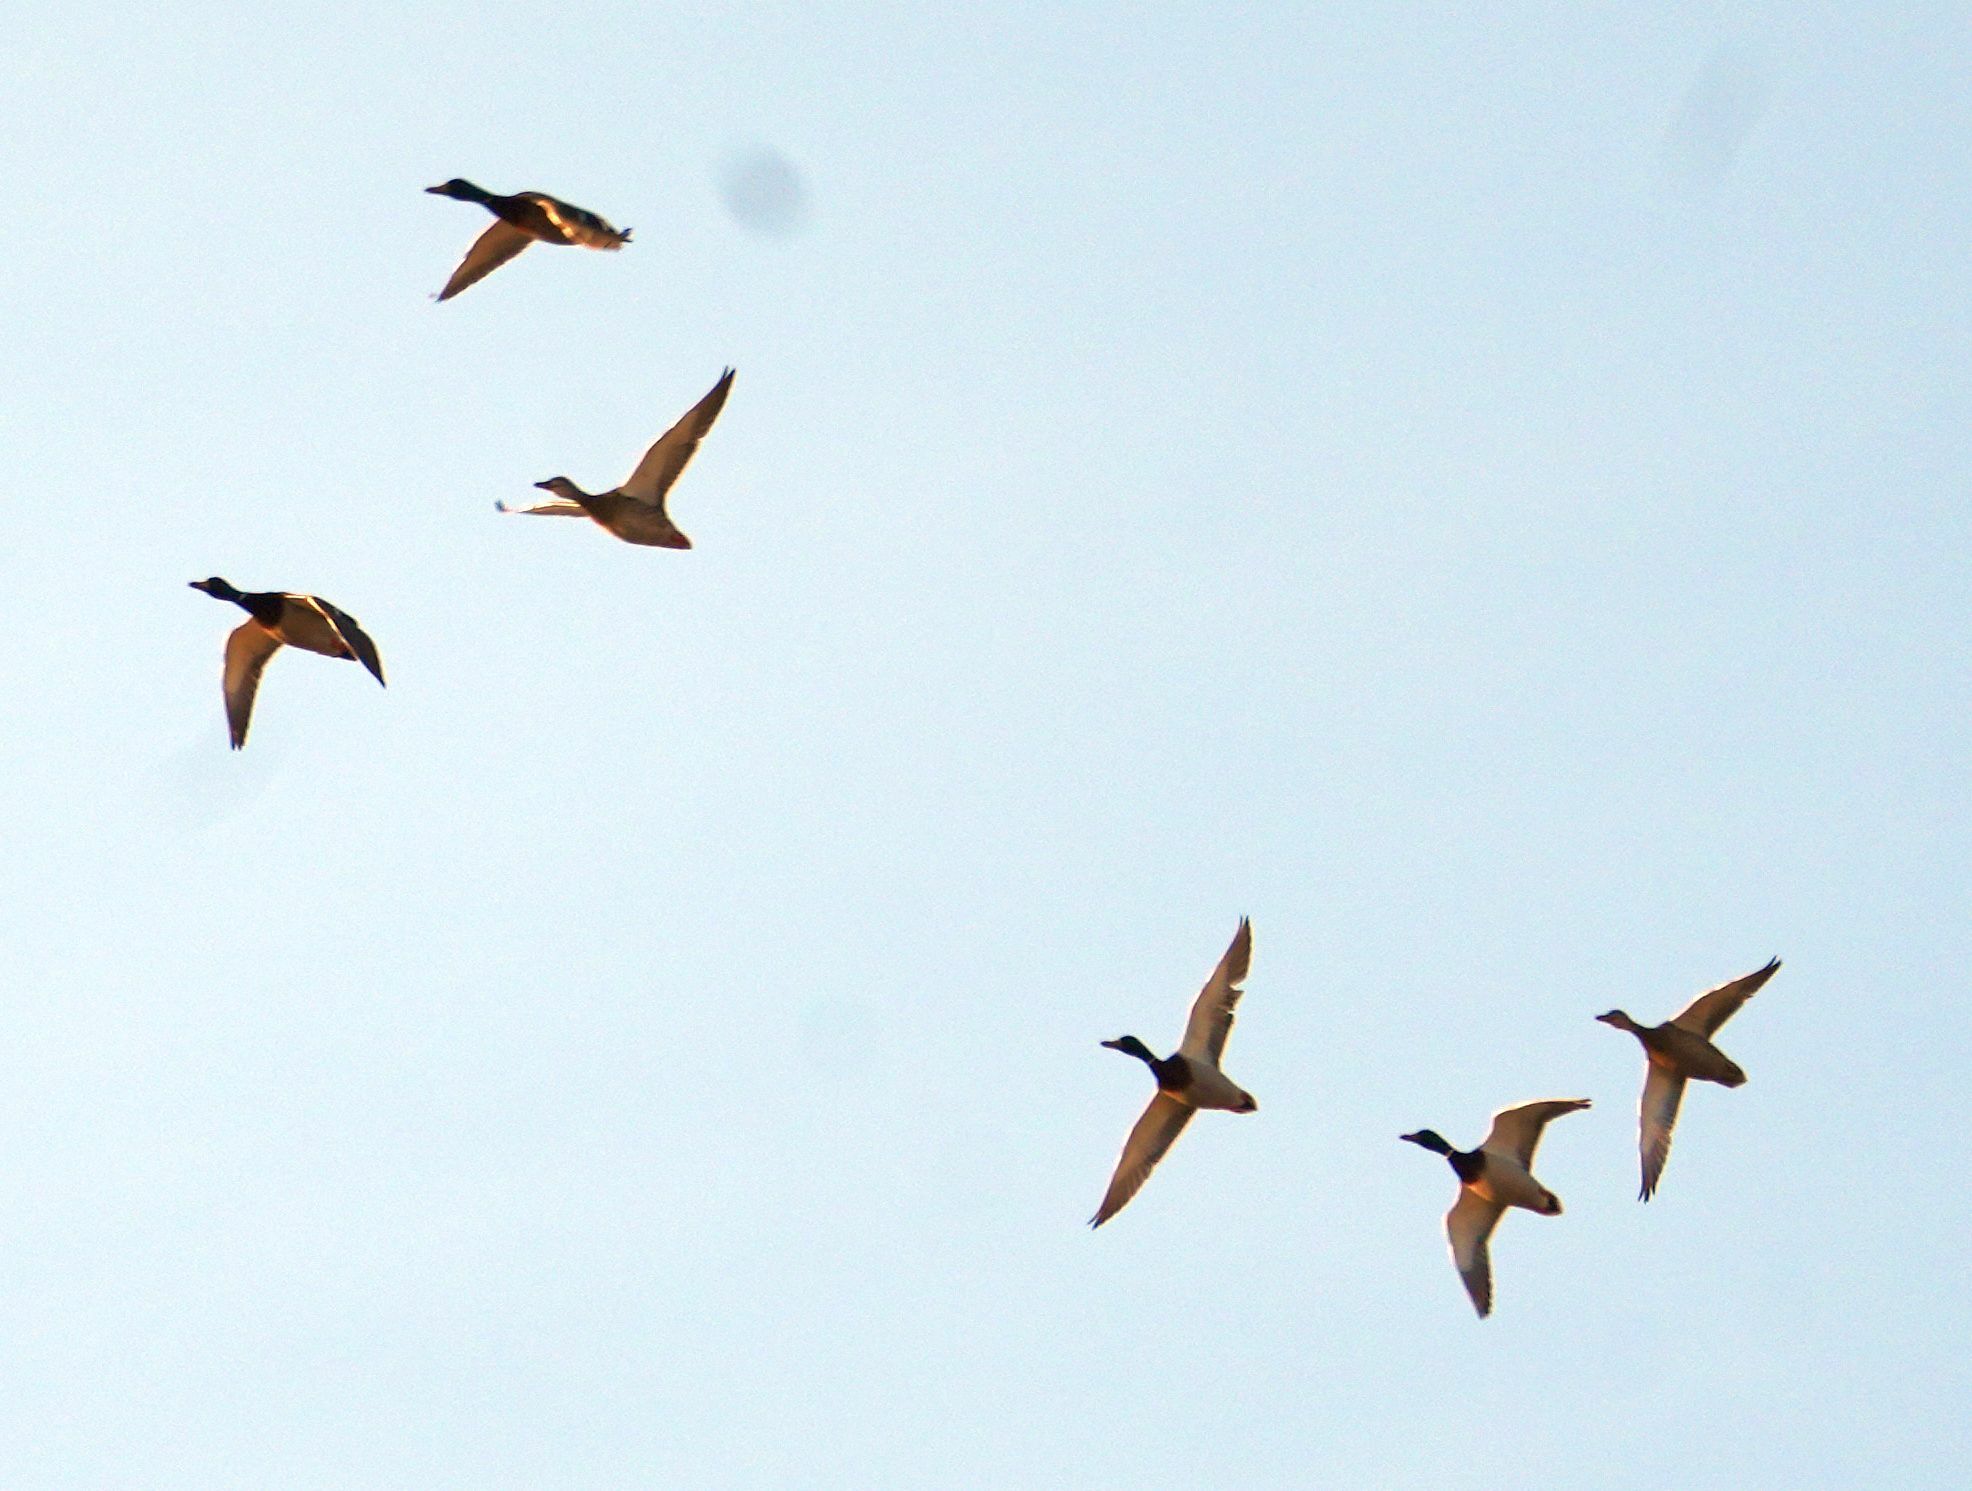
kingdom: Animalia
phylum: Chordata
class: Aves
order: Anseriformes
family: Anatidae
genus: Anas
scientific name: Anas platyrhynchos
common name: Mallard
